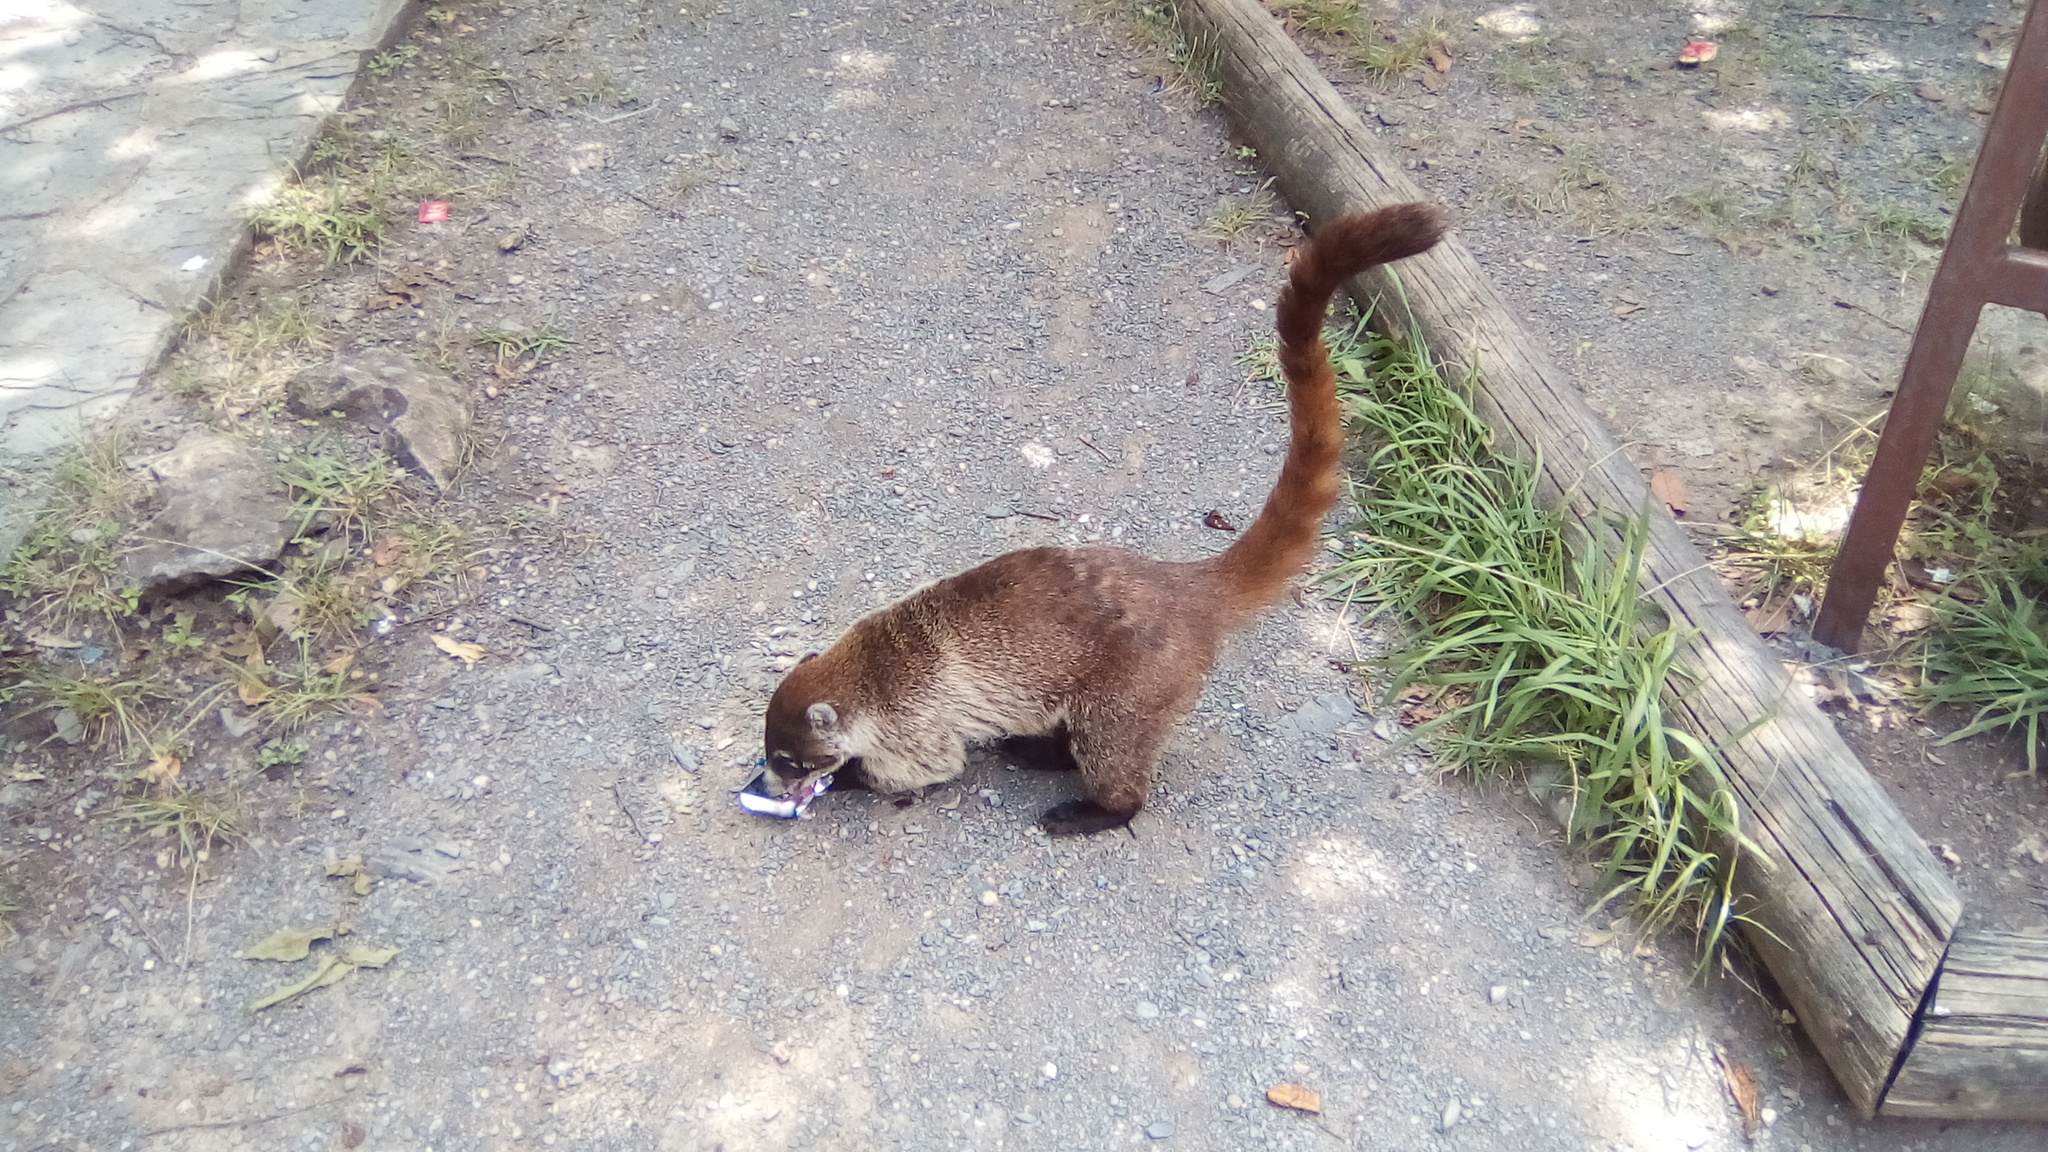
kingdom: Animalia
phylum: Chordata
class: Mammalia
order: Carnivora
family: Procyonidae
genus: Nasua
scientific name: Nasua narica
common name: White-nosed coati
